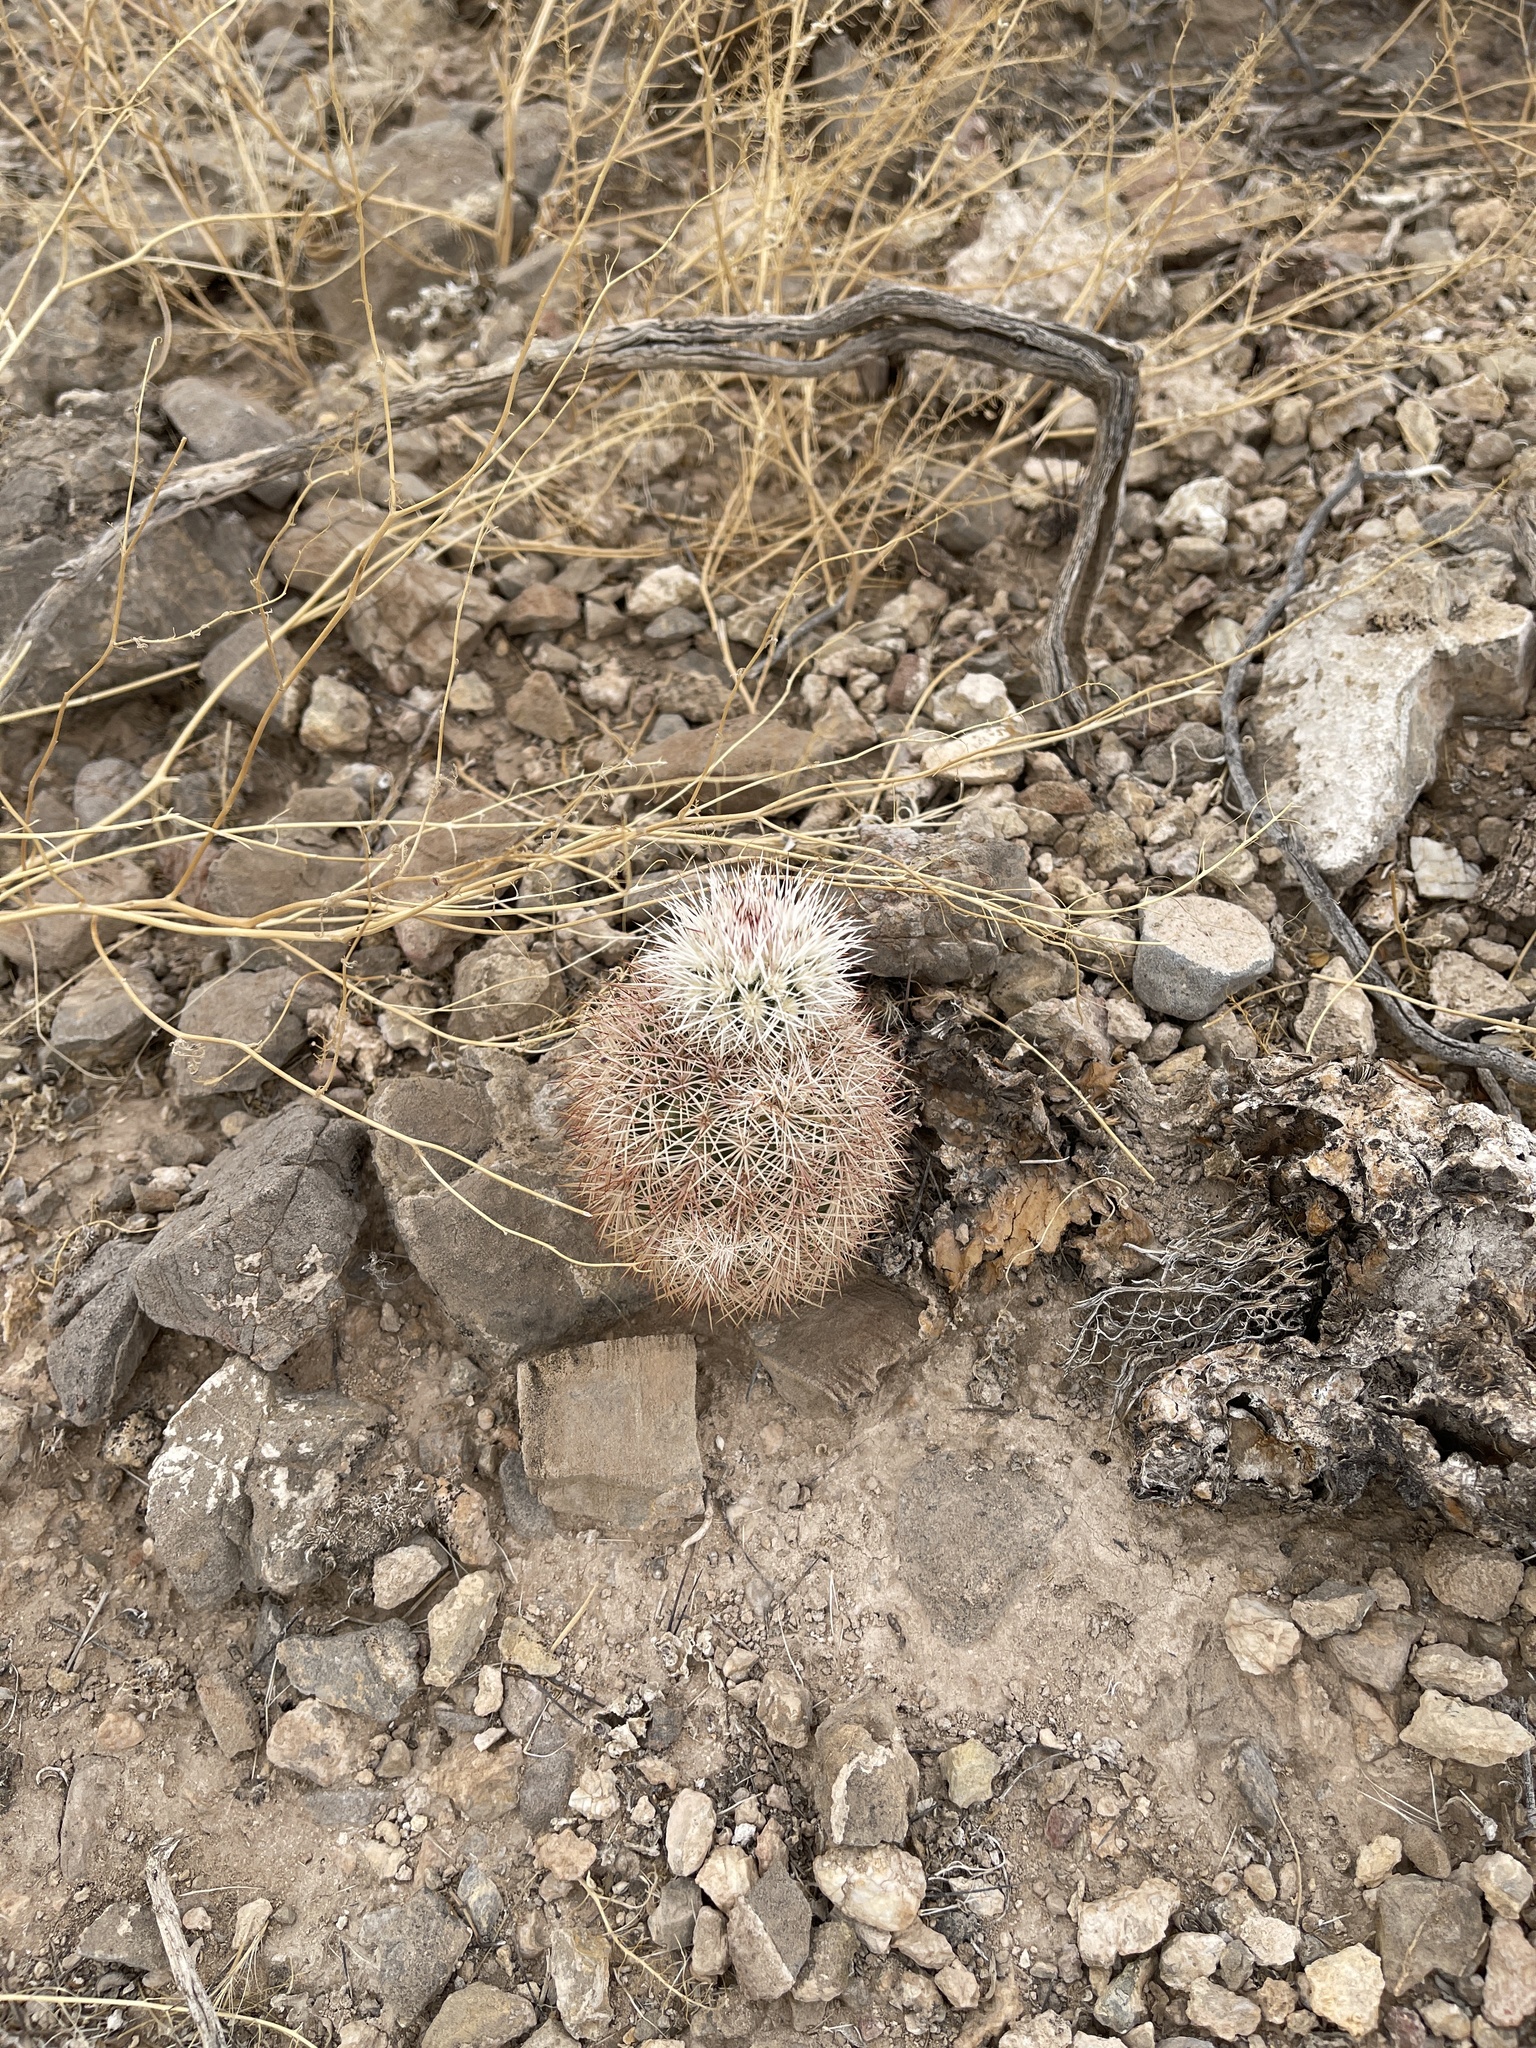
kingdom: Plantae
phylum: Tracheophyta
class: Magnoliopsida
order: Caryophyllales
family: Cactaceae
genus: Echinocereus
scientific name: Echinocereus dasyacanthus
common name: Spiny hedgehog cactus
